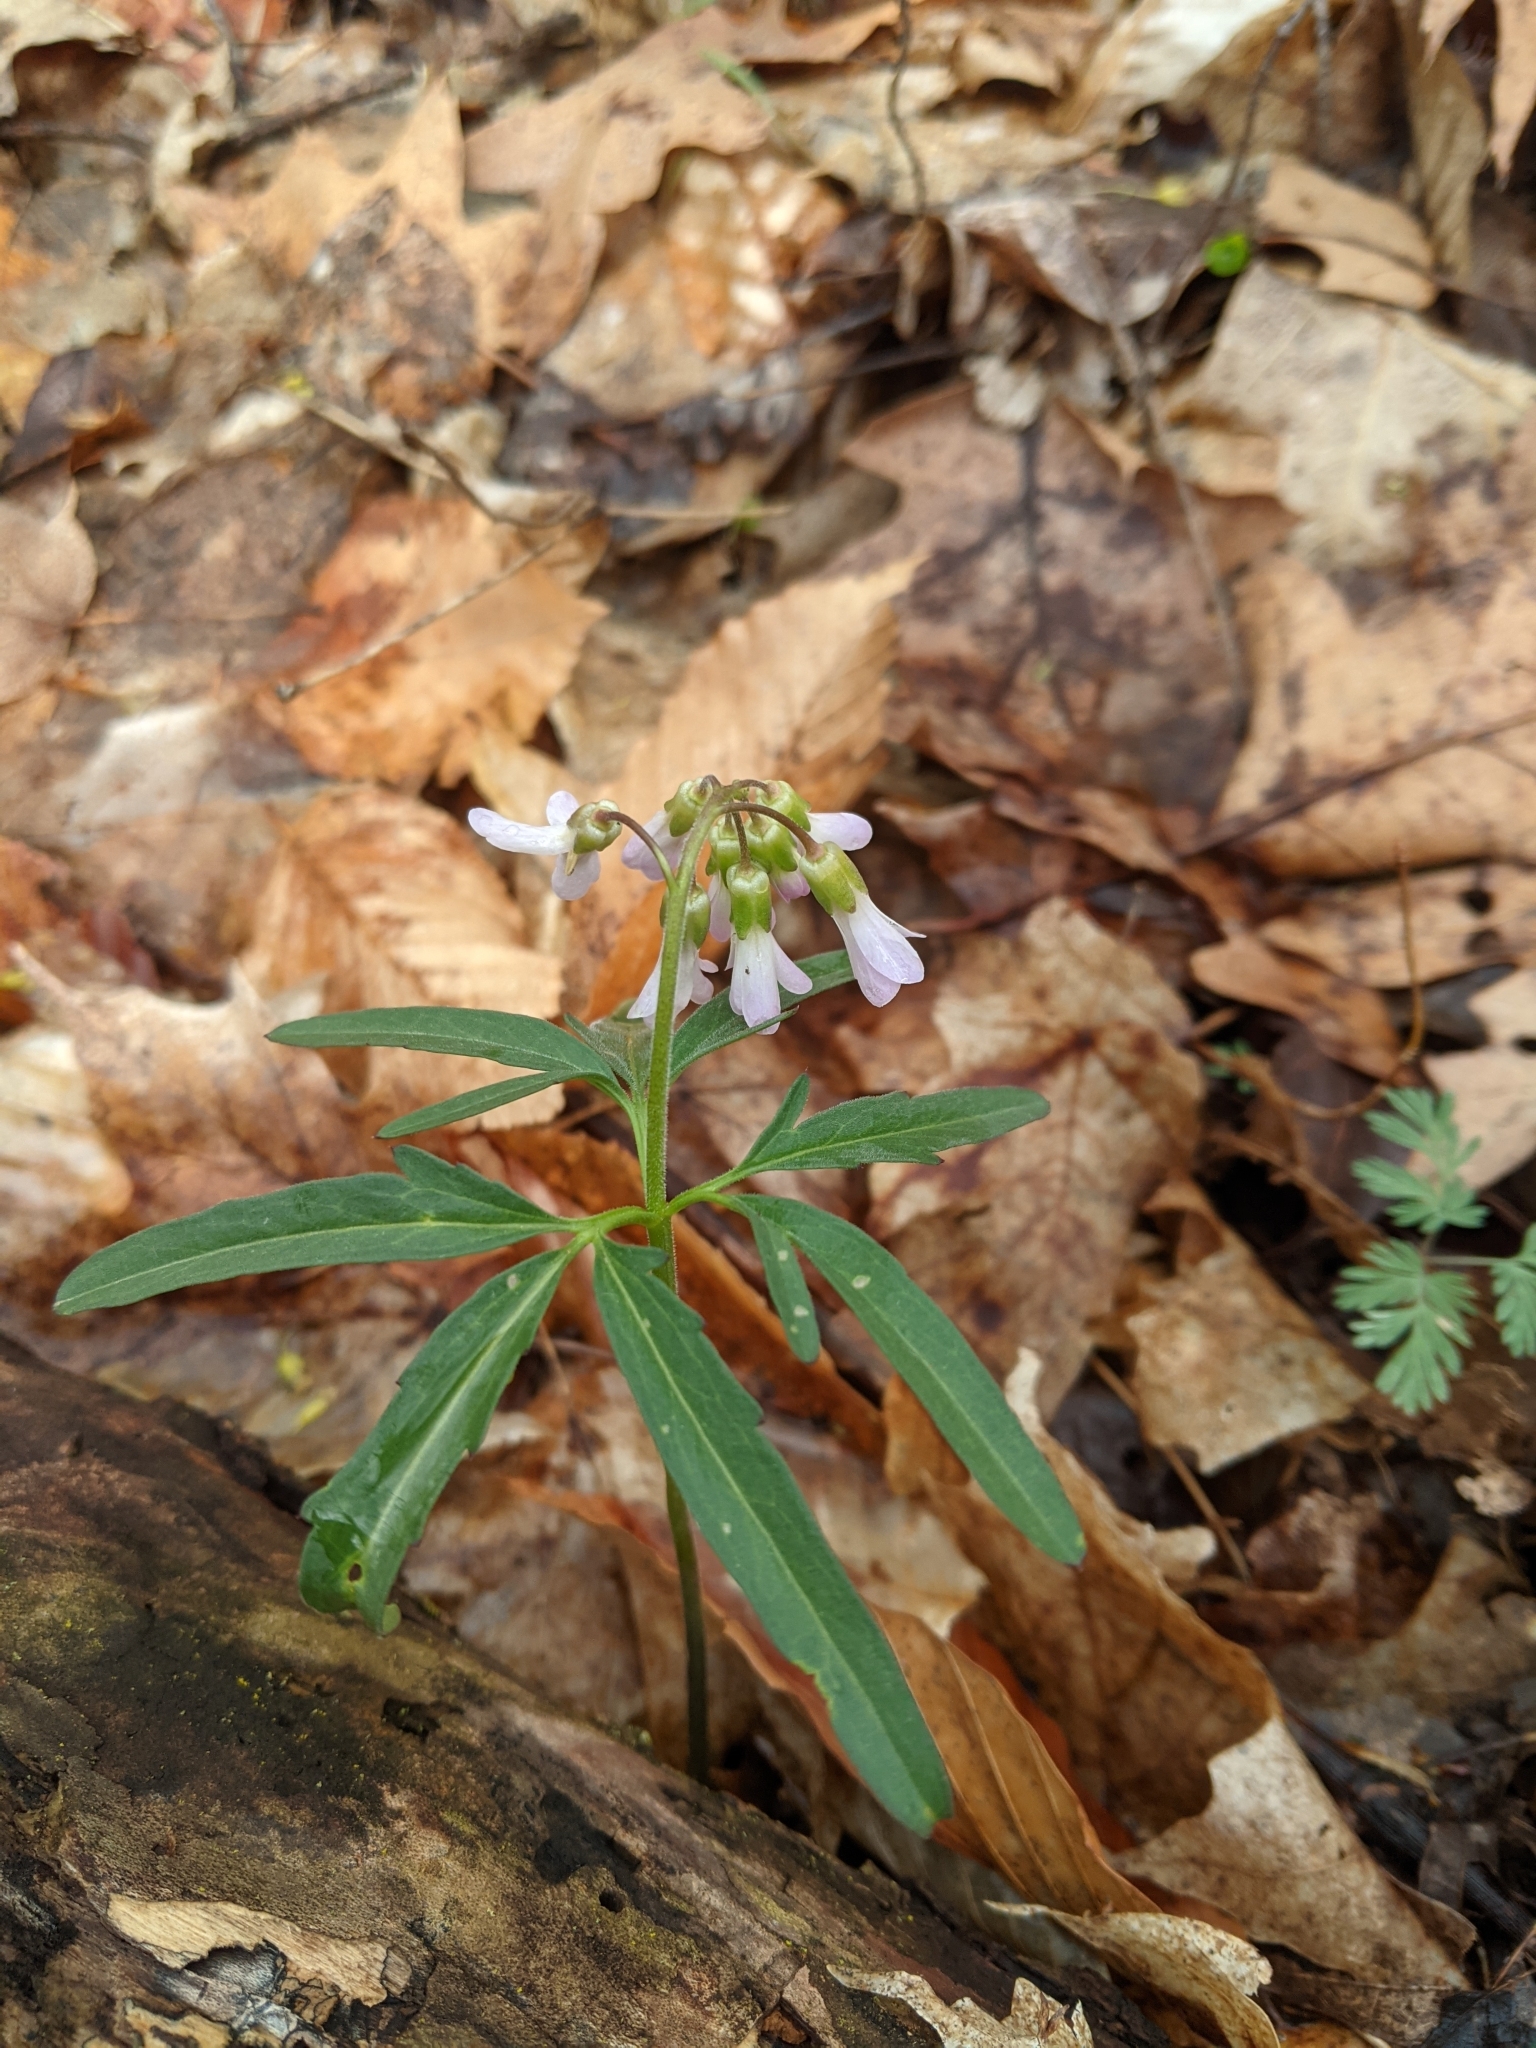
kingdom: Plantae
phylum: Tracheophyta
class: Magnoliopsida
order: Brassicales
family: Brassicaceae
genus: Cardamine
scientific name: Cardamine concatenata
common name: Cut-leaf toothcup
